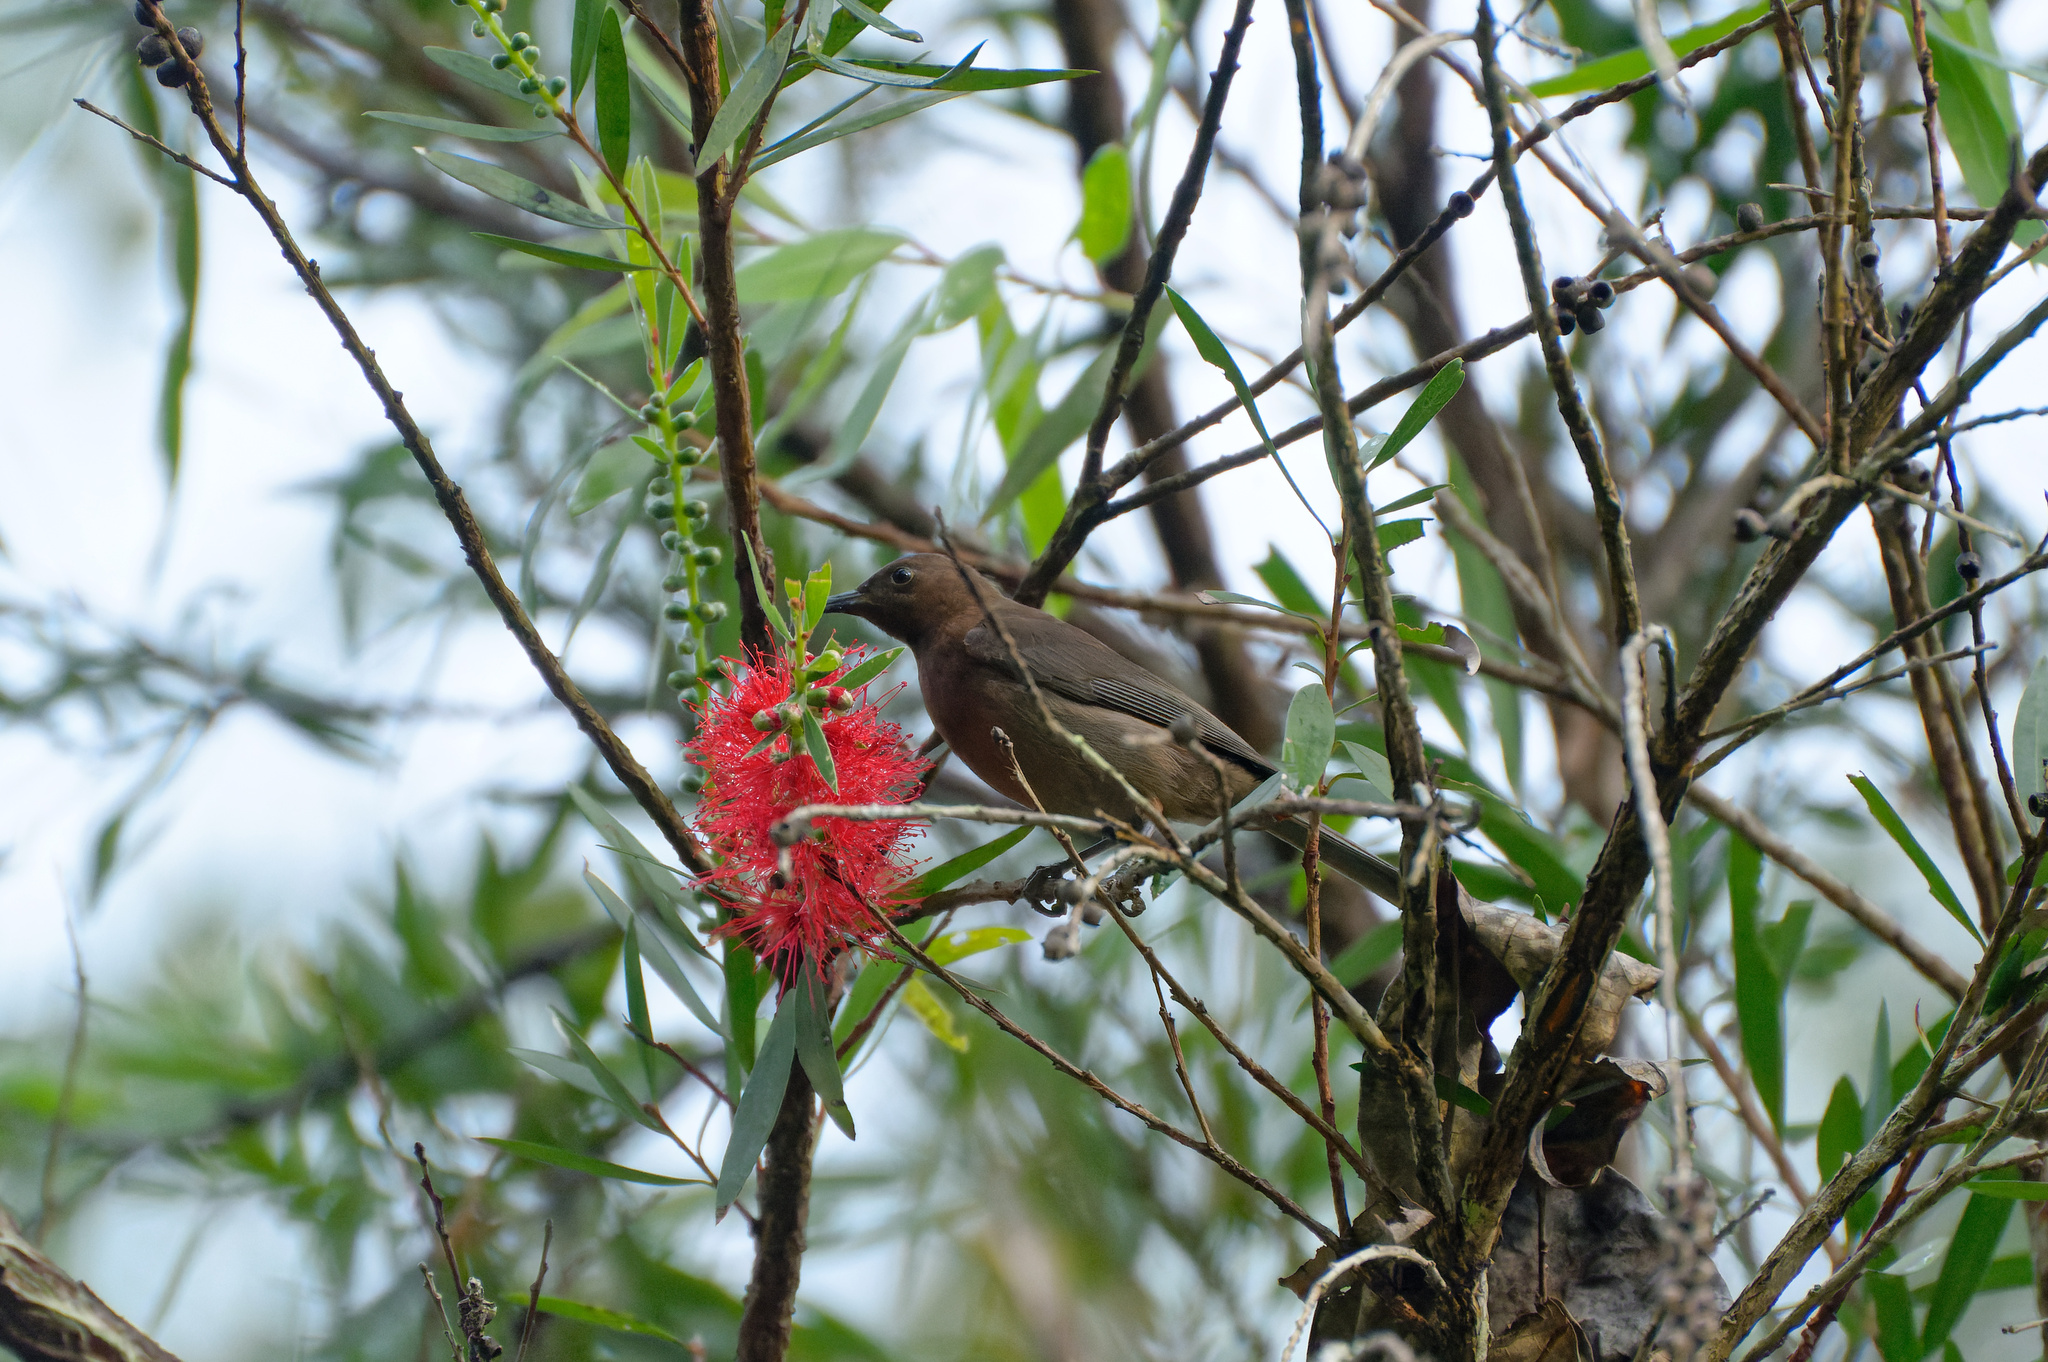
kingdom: Animalia
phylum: Chordata
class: Aves
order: Passeriformes
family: Meliphagidae
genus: Myzomela
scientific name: Myzomela obscura
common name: Dusky myzomela
